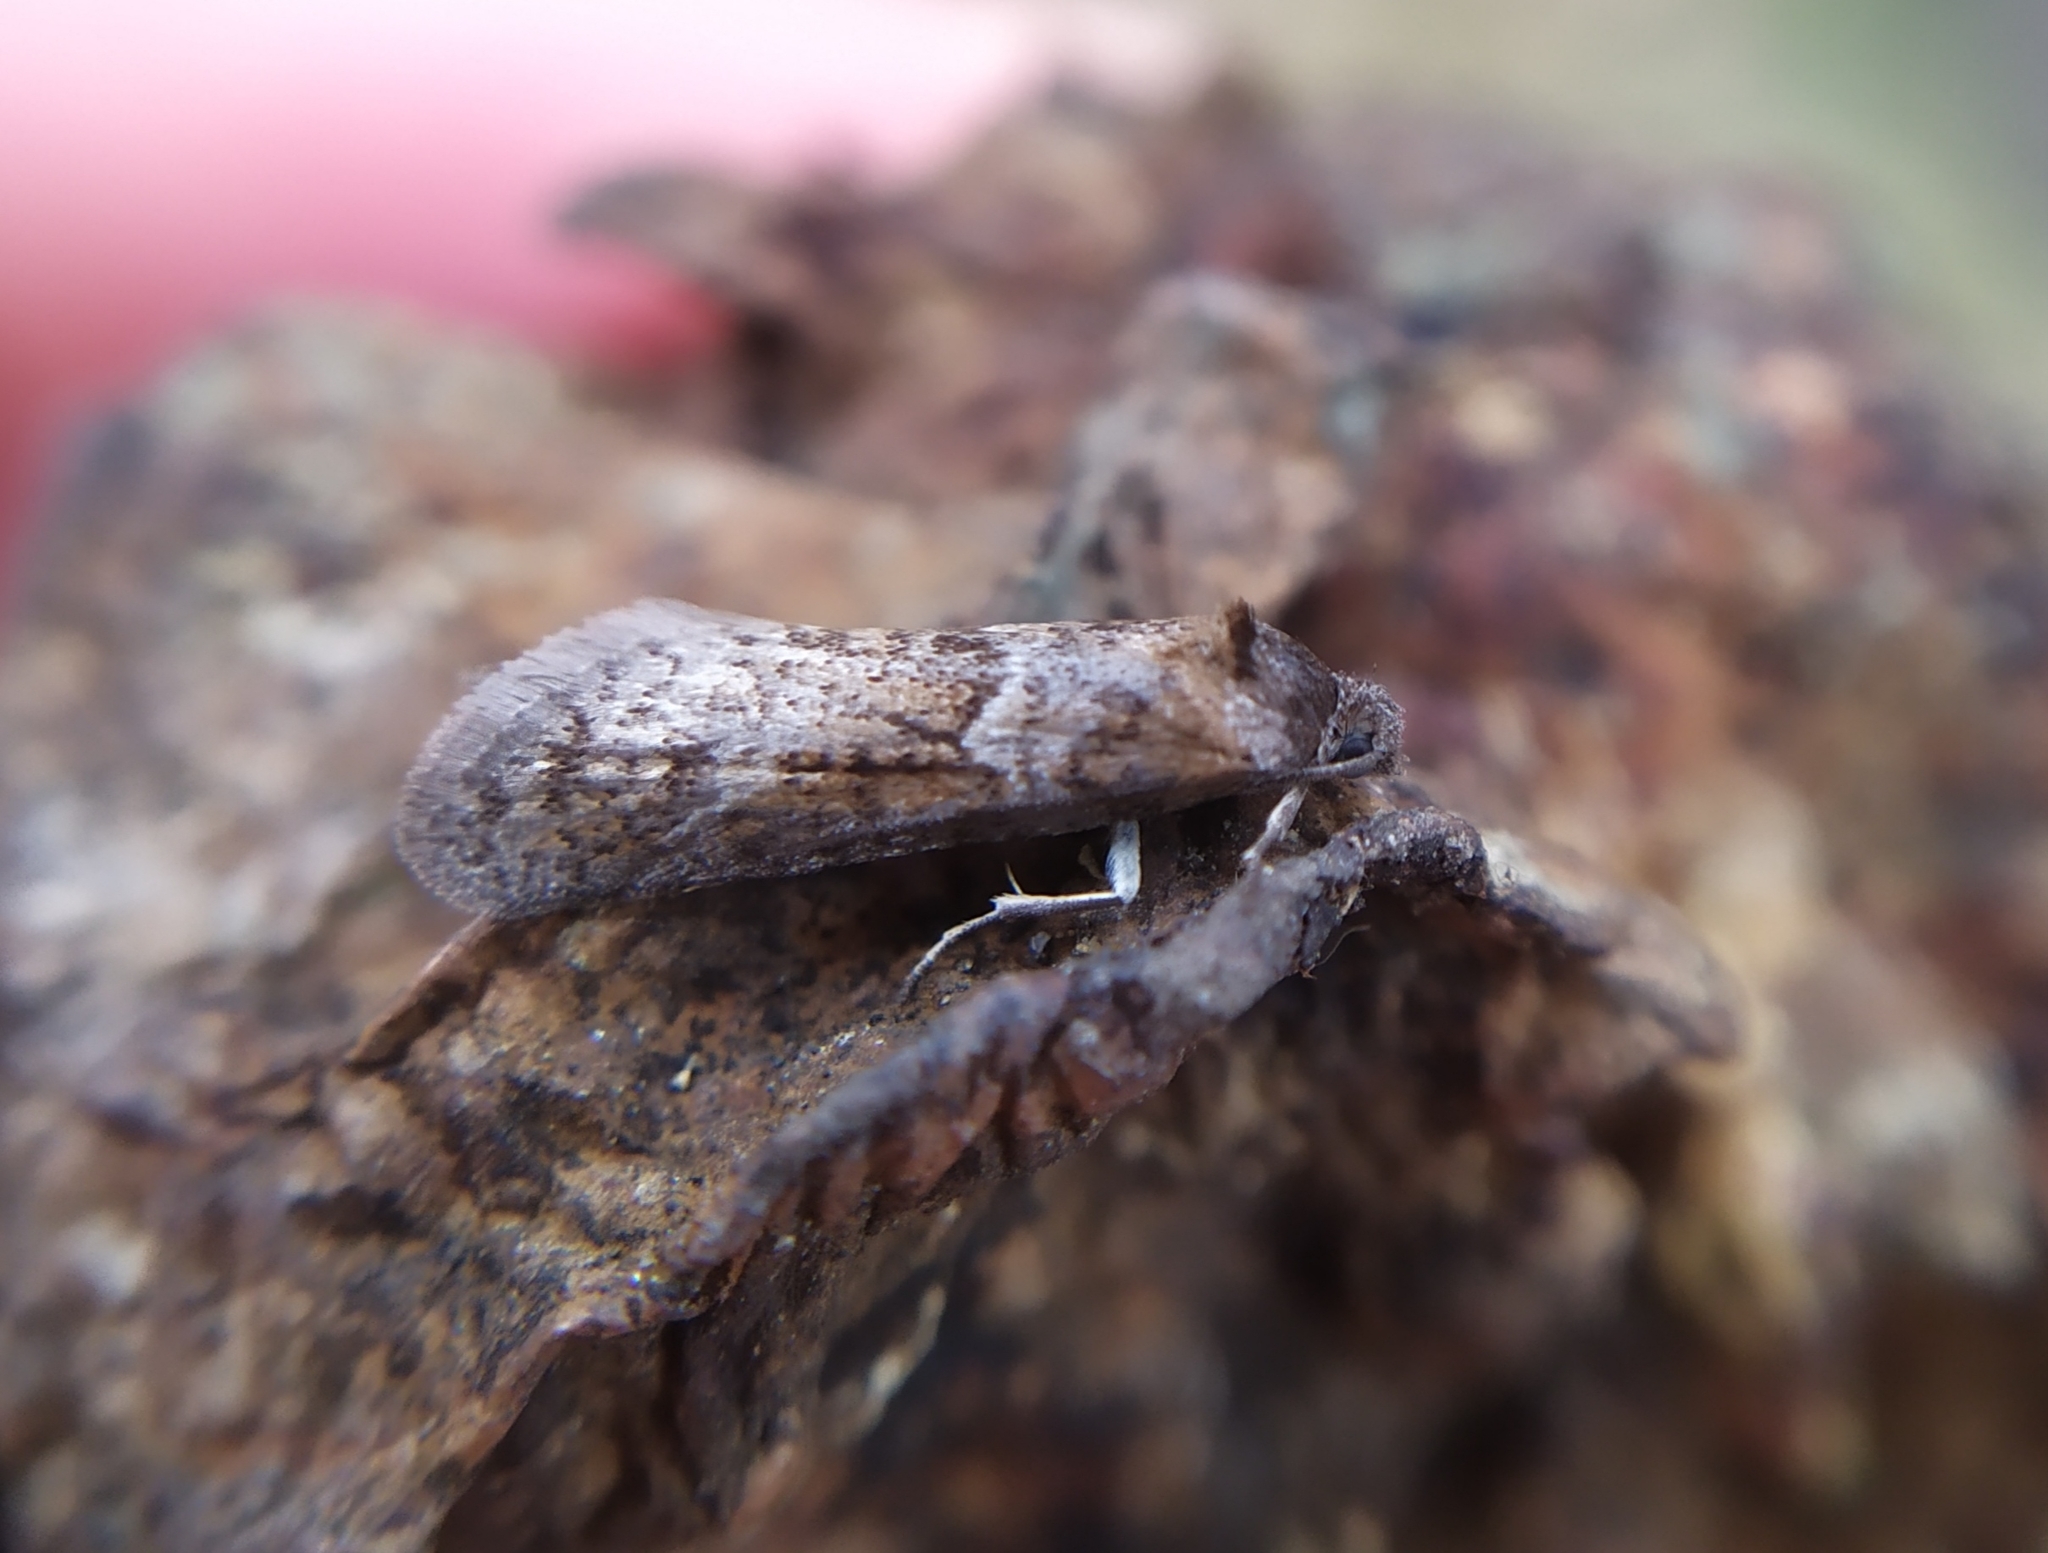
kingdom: Animalia
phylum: Arthropoda
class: Insecta
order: Lepidoptera
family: Tortricidae
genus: Tortricodes
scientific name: Tortricodes alternella
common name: Winter shade
